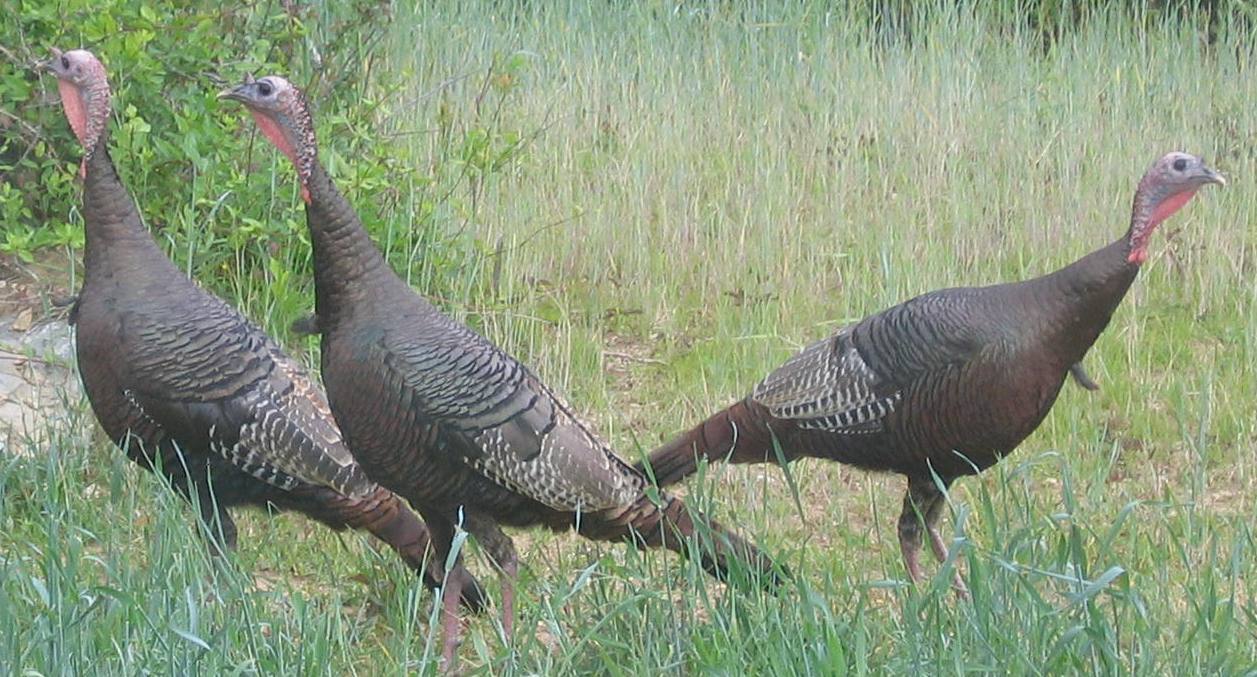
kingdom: Animalia
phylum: Chordata
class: Aves
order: Galliformes
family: Phasianidae
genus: Meleagris
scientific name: Meleagris gallopavo
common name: Wild turkey
